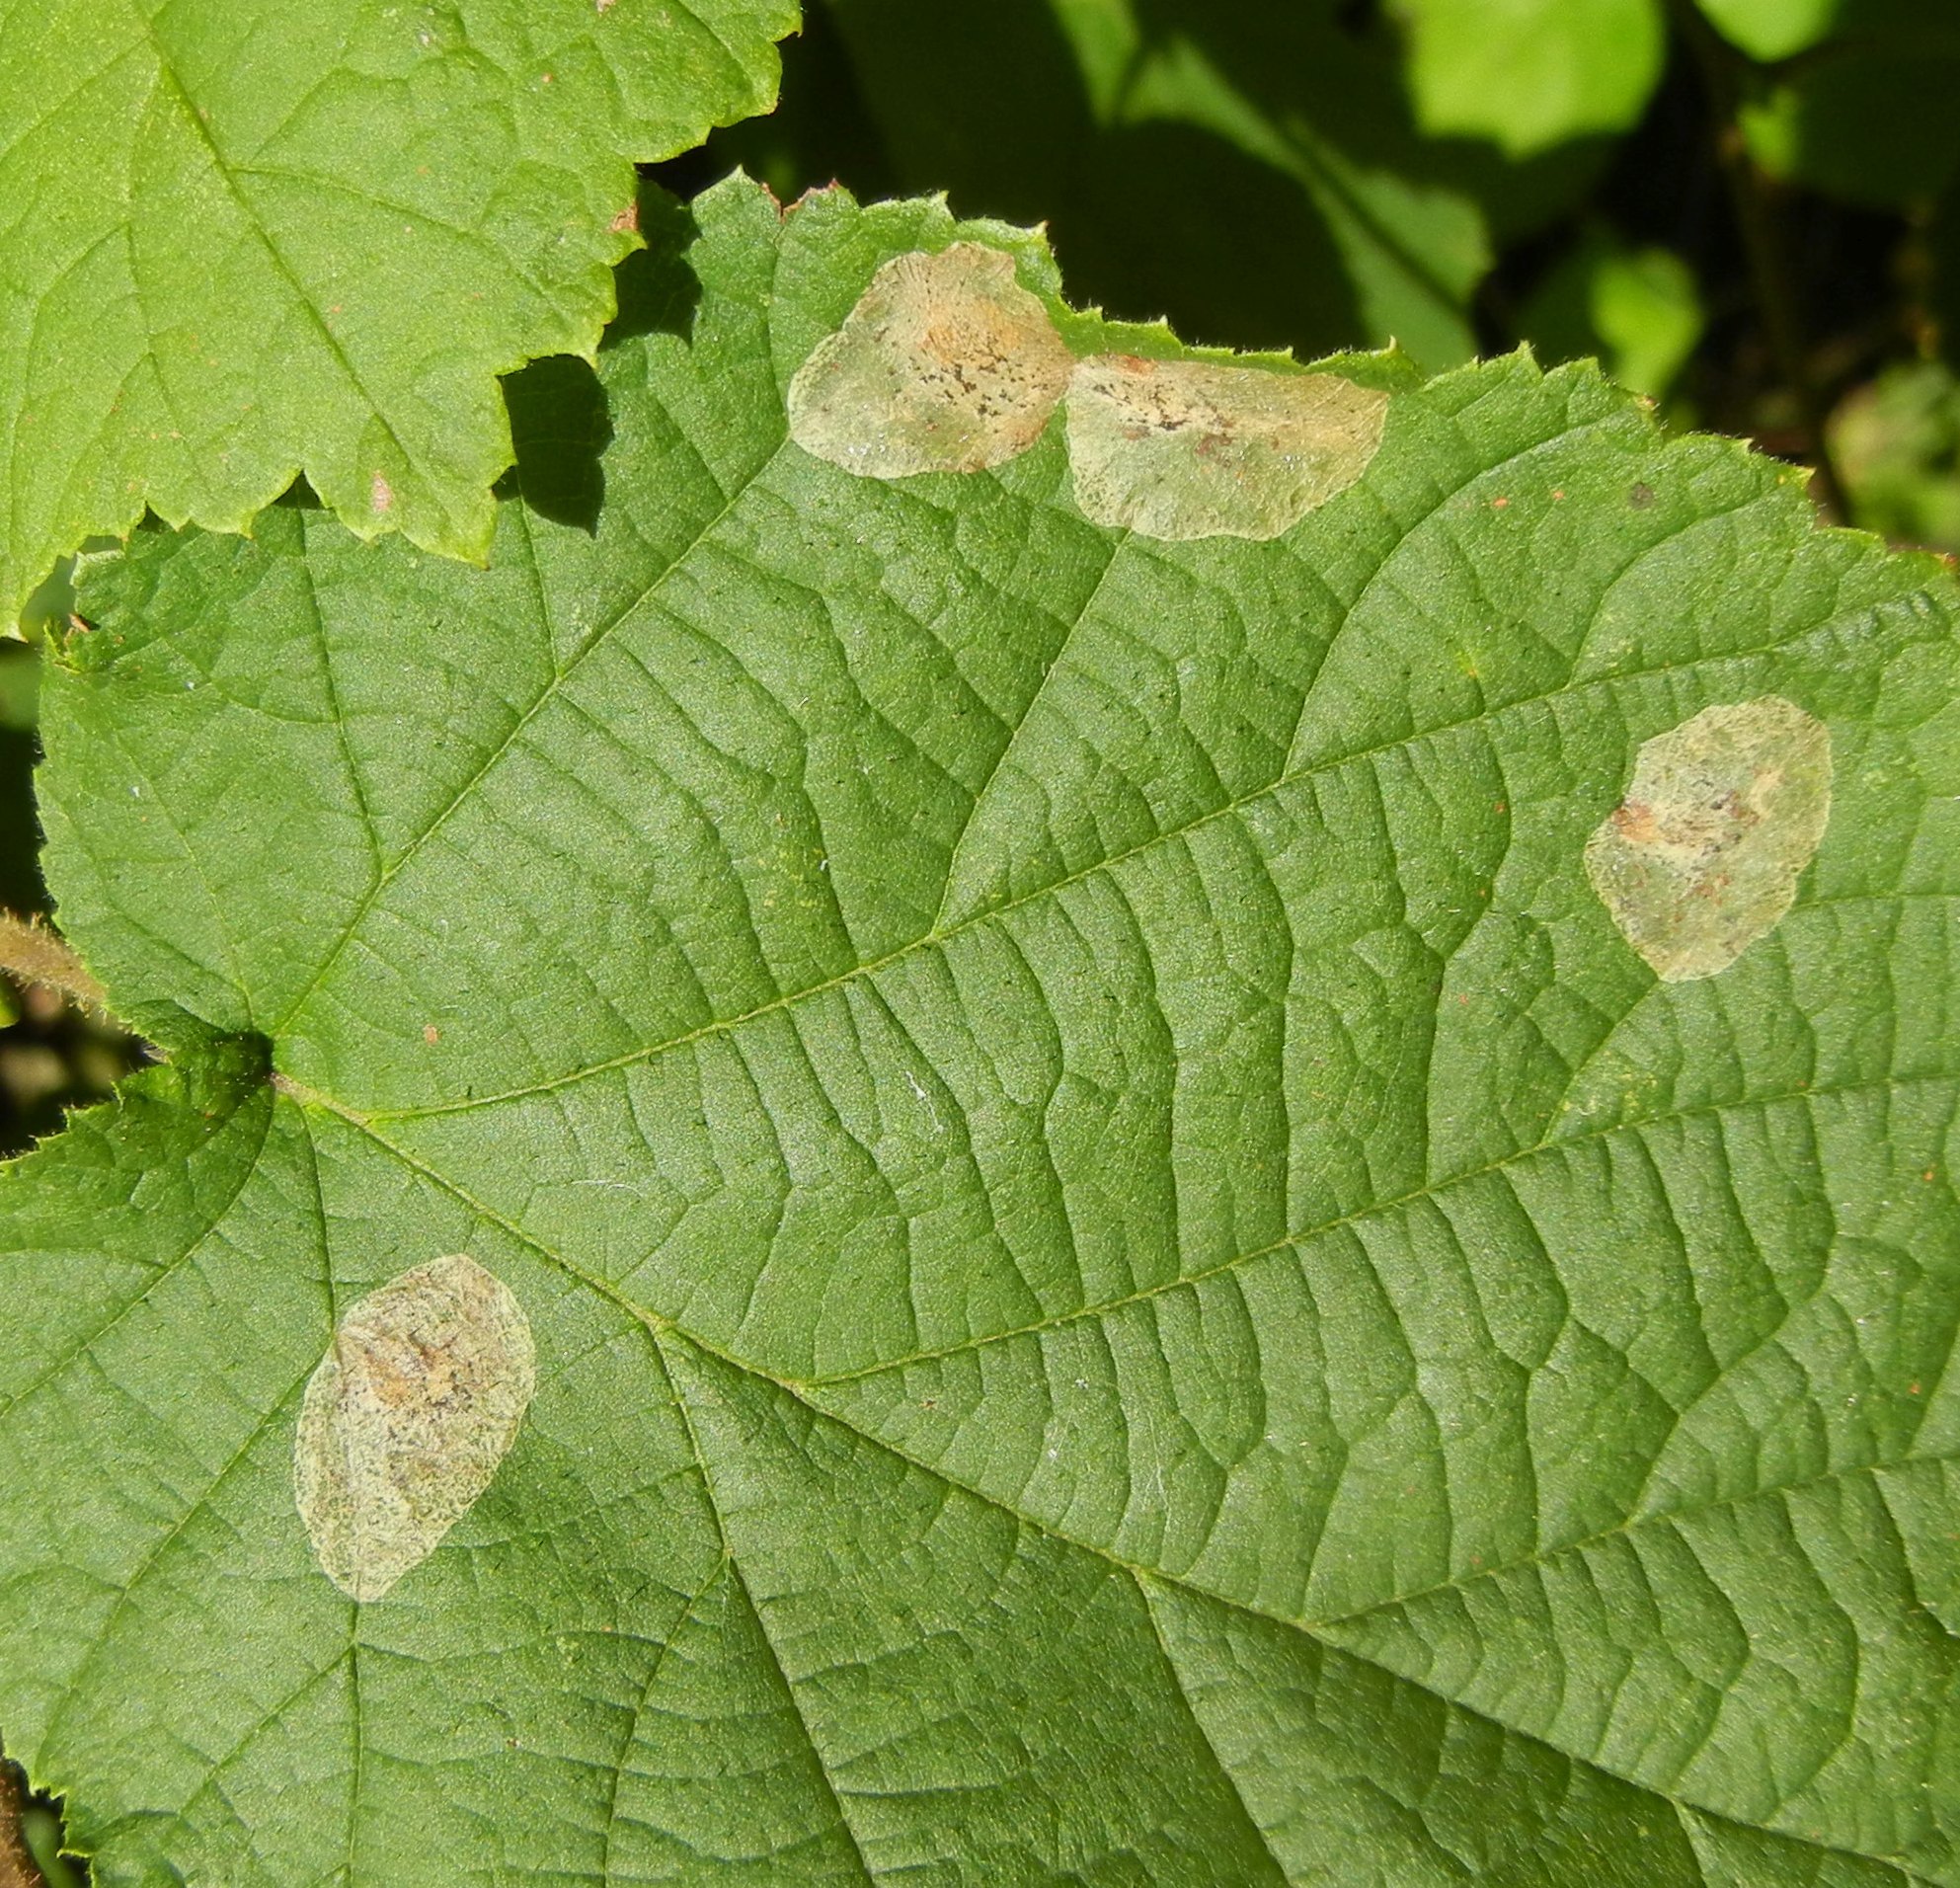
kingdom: Animalia
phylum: Arthropoda
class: Insecta
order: Lepidoptera
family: Gracillariidae
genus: Phyllonorycter
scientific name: Phyllonorycter coryli
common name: Nut-leaf blister moth
